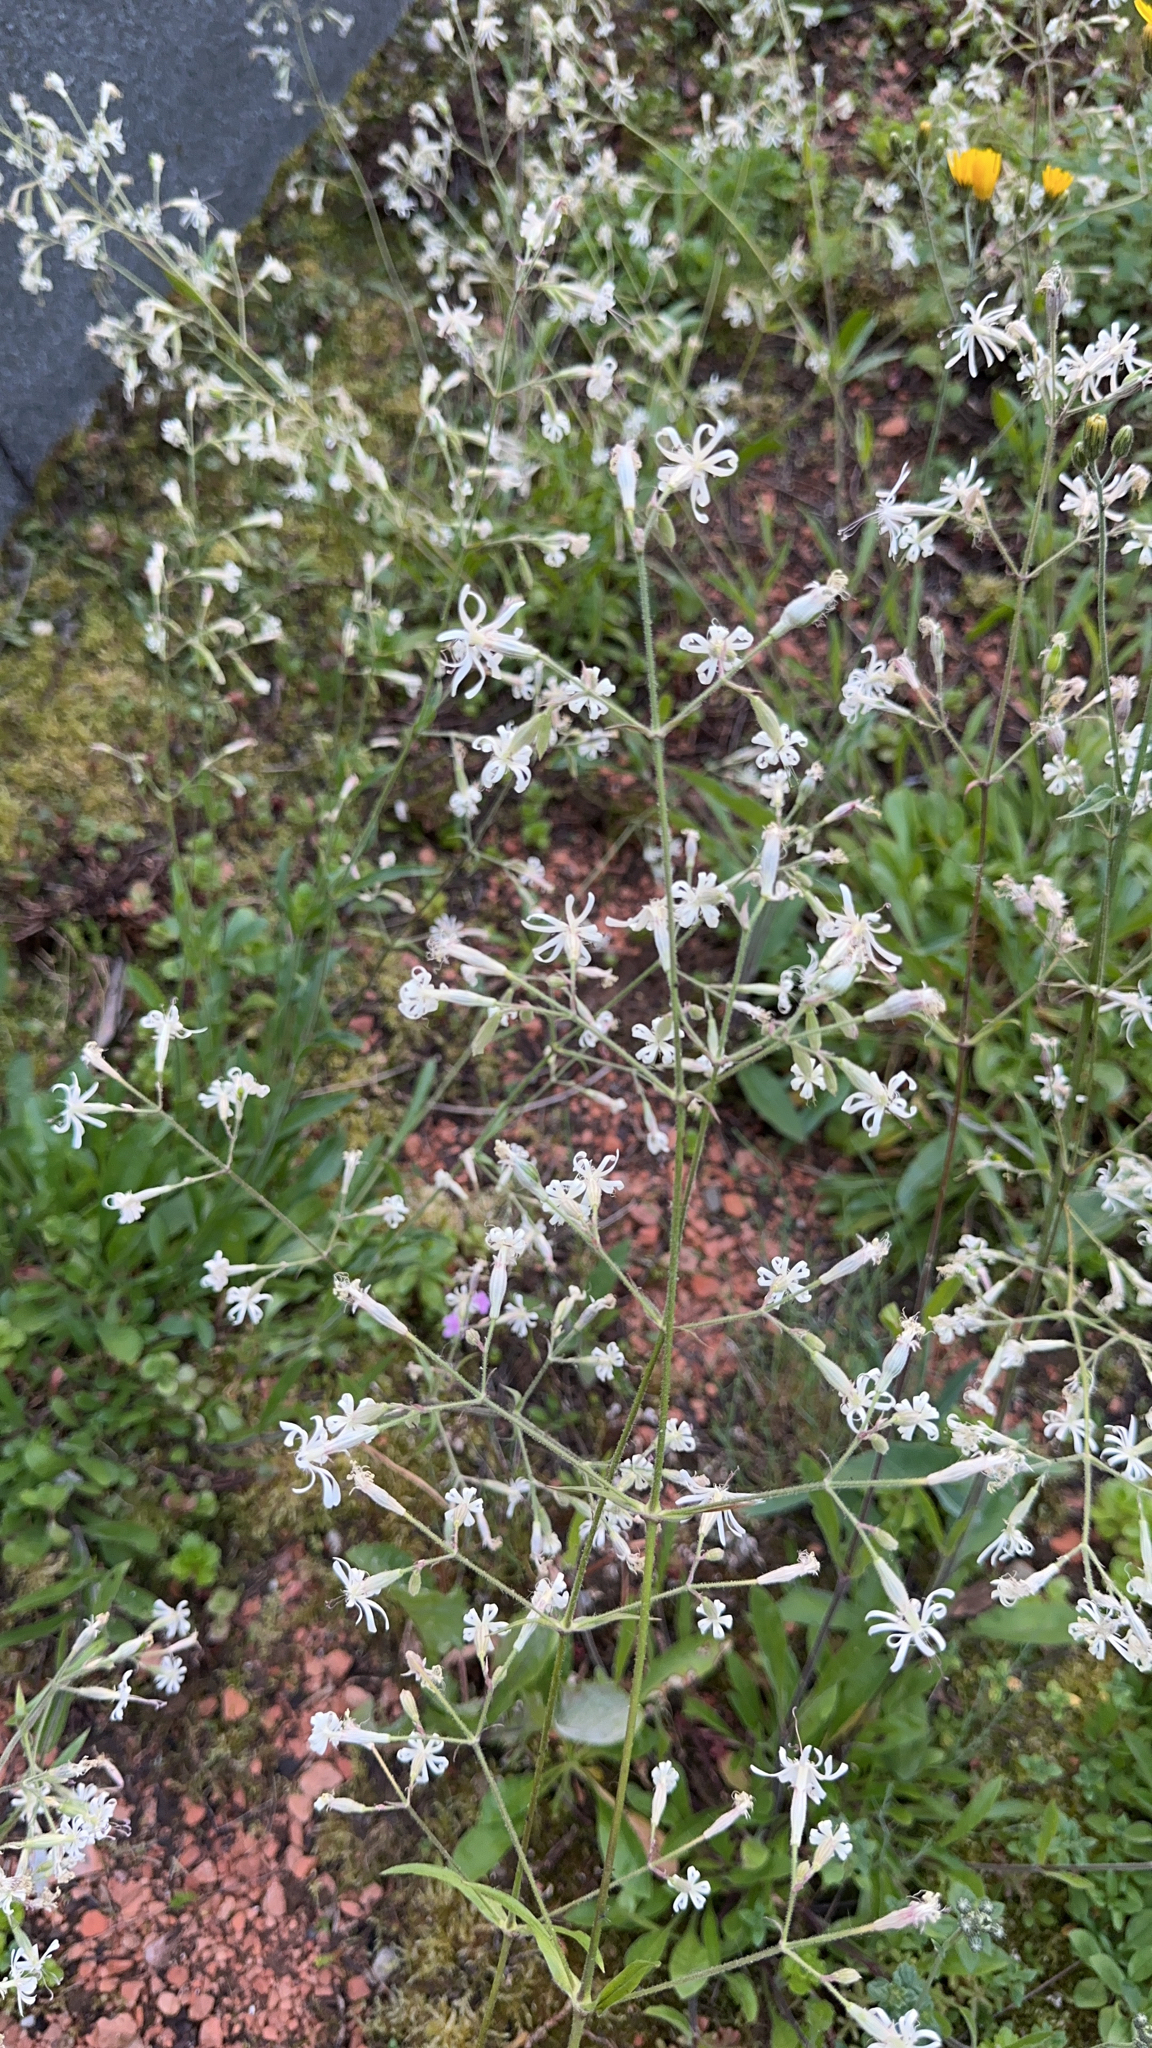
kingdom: Plantae
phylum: Tracheophyta
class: Magnoliopsida
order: Caryophyllales
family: Caryophyllaceae
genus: Silene
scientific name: Silene nutans
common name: Nottingham catchfly
